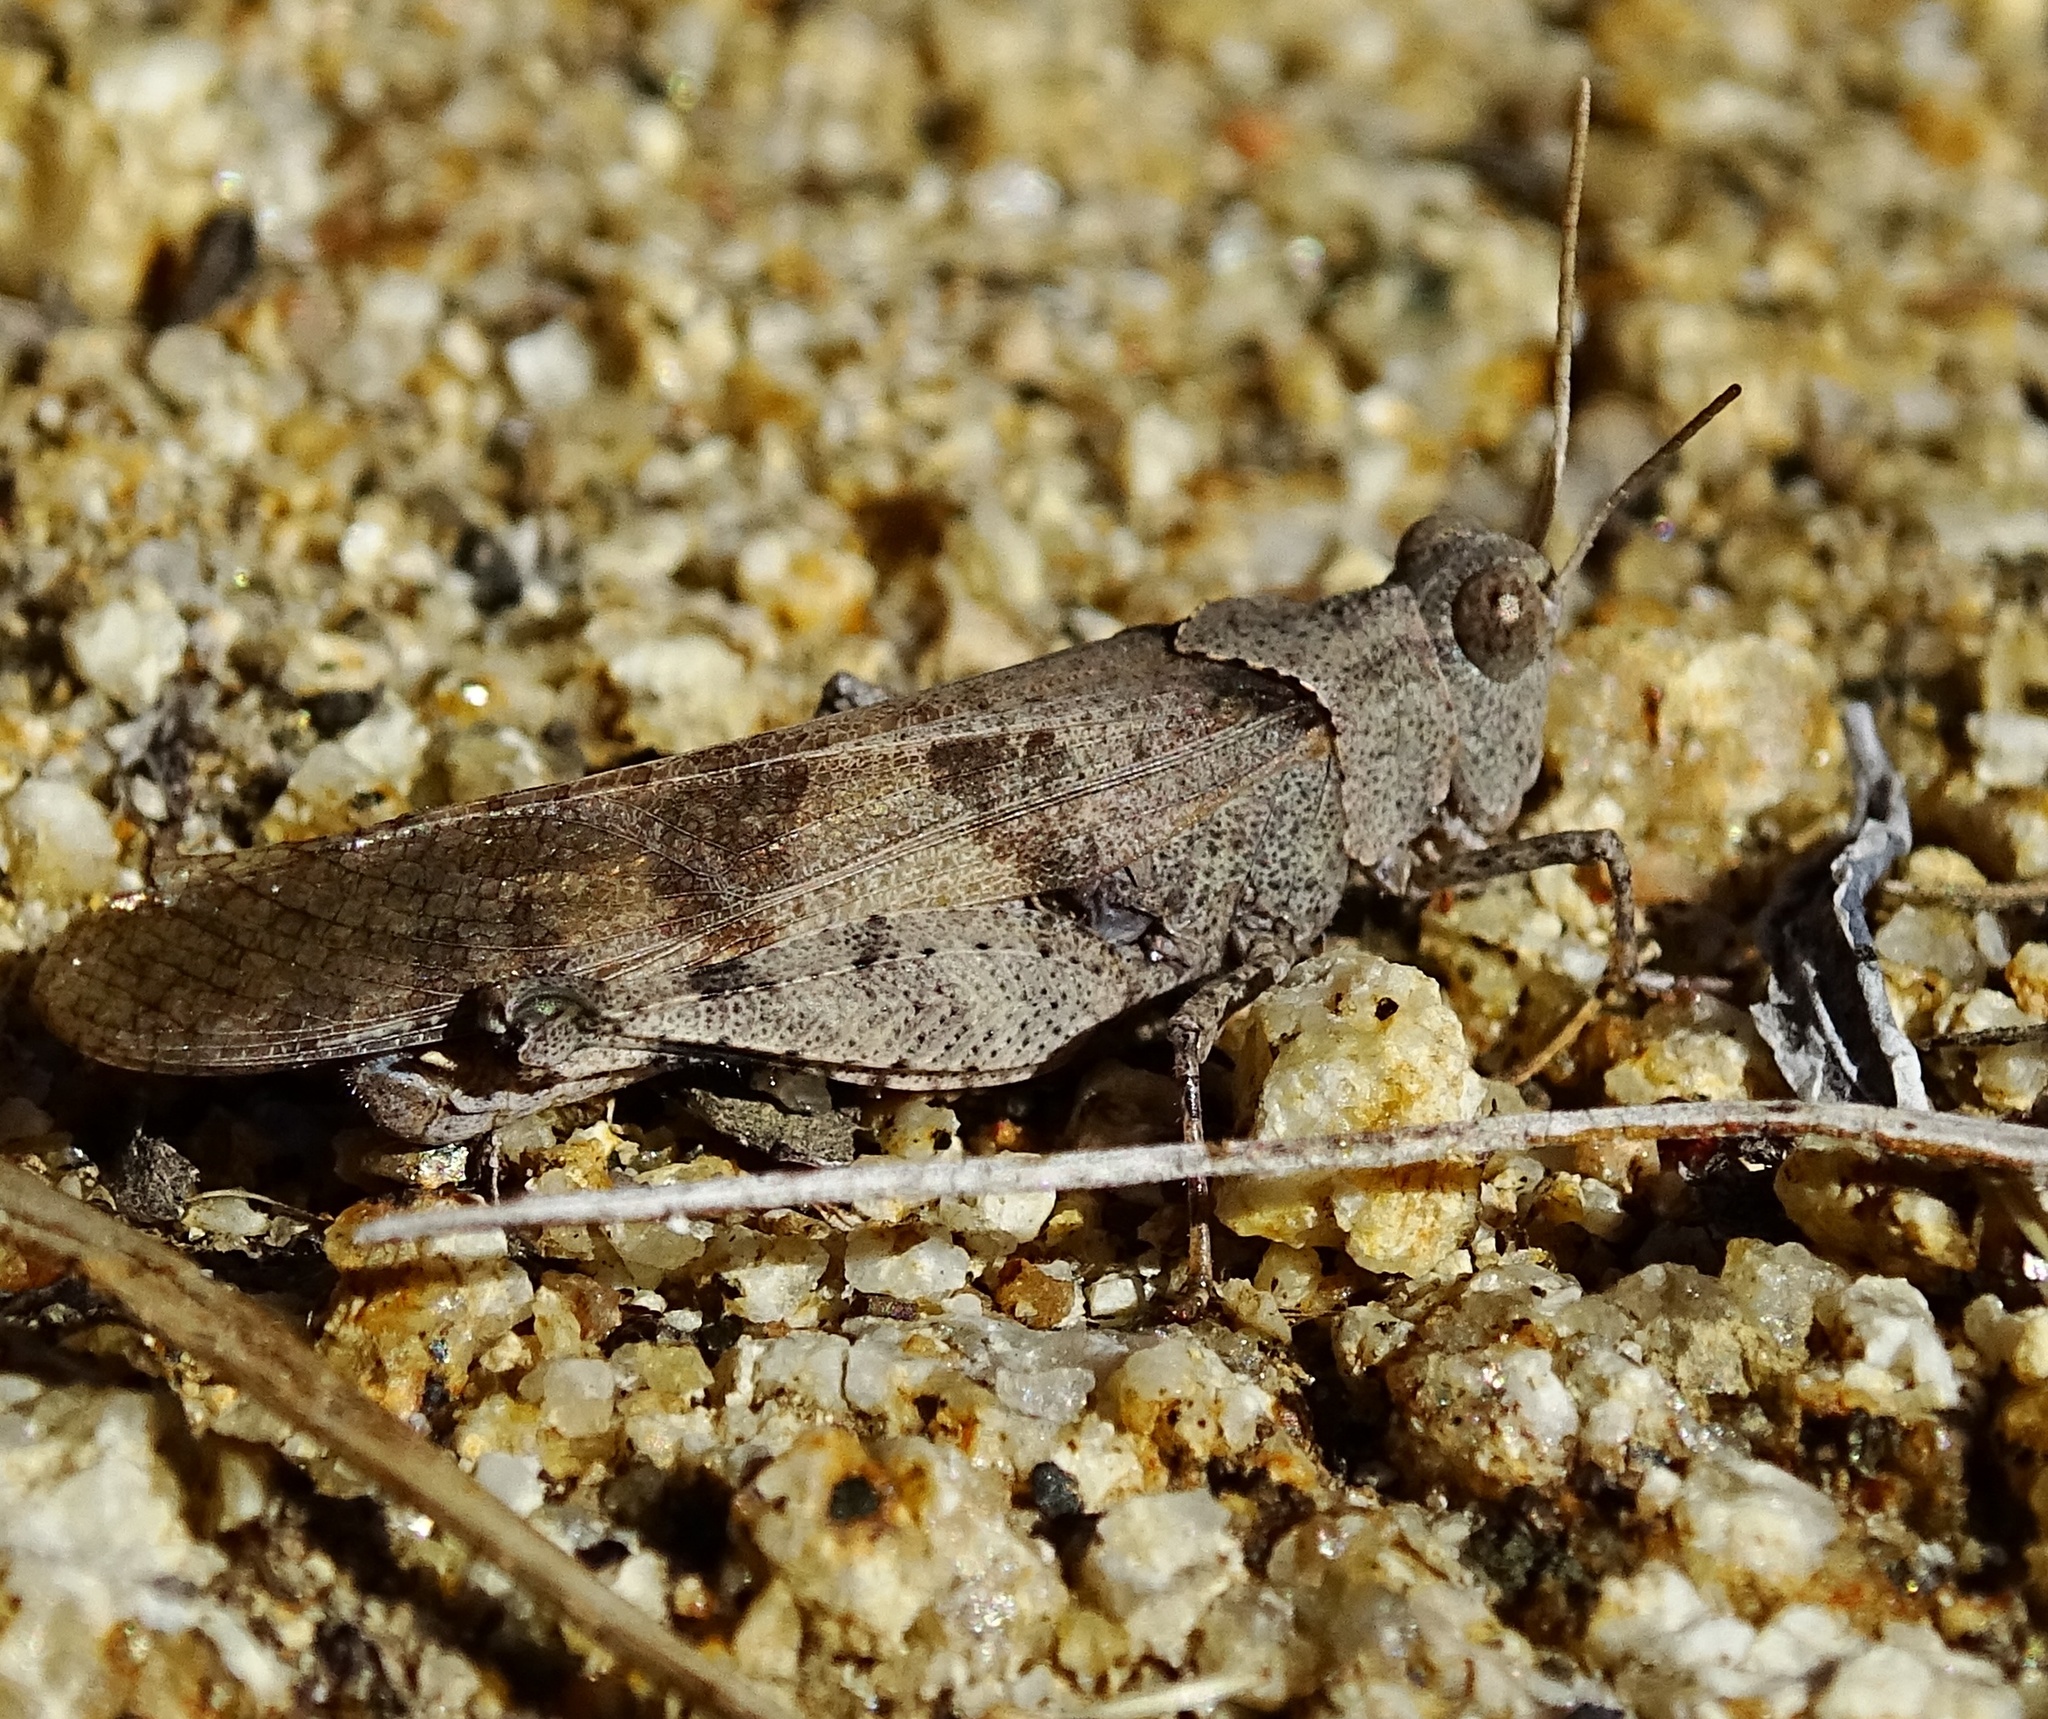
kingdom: Animalia
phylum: Arthropoda
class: Insecta
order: Orthoptera
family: Acrididae
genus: Trimerotropis
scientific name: Trimerotropis thalassica
